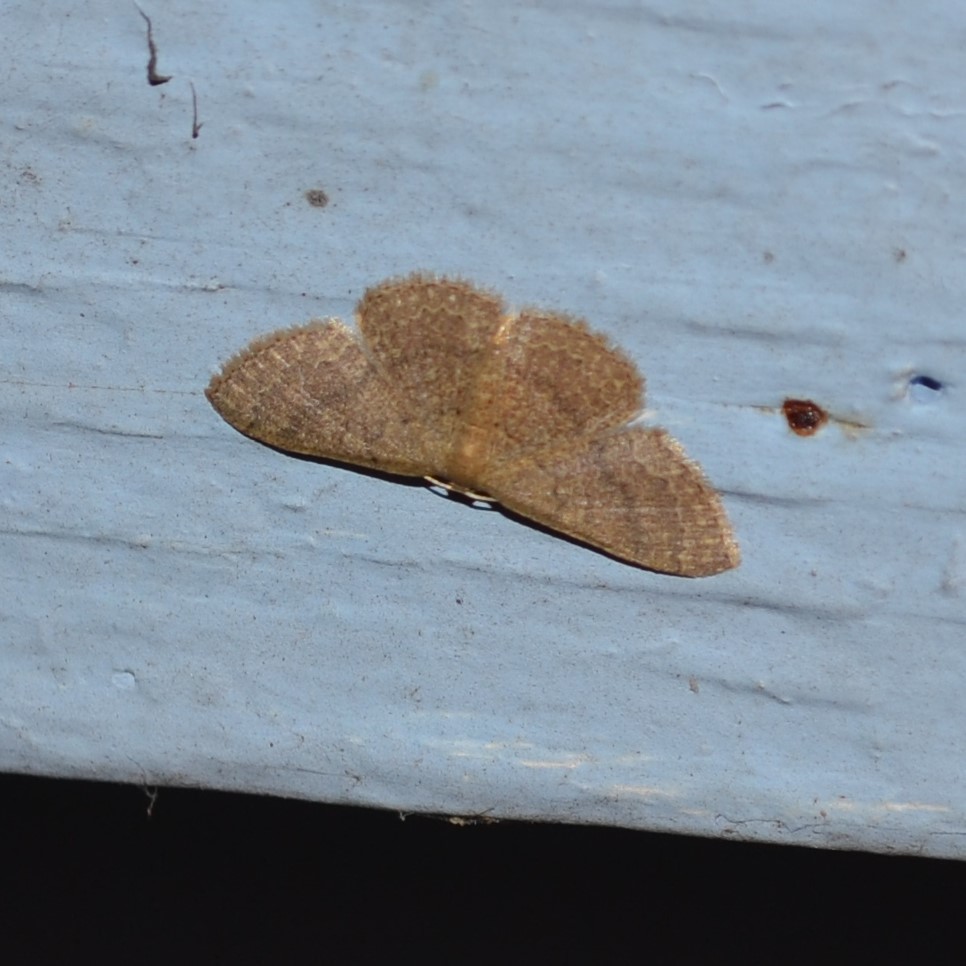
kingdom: Animalia
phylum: Arthropoda
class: Insecta
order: Lepidoptera
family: Geometridae
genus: Pleuroprucha
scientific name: Pleuroprucha insulsaria
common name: Common tan wave
